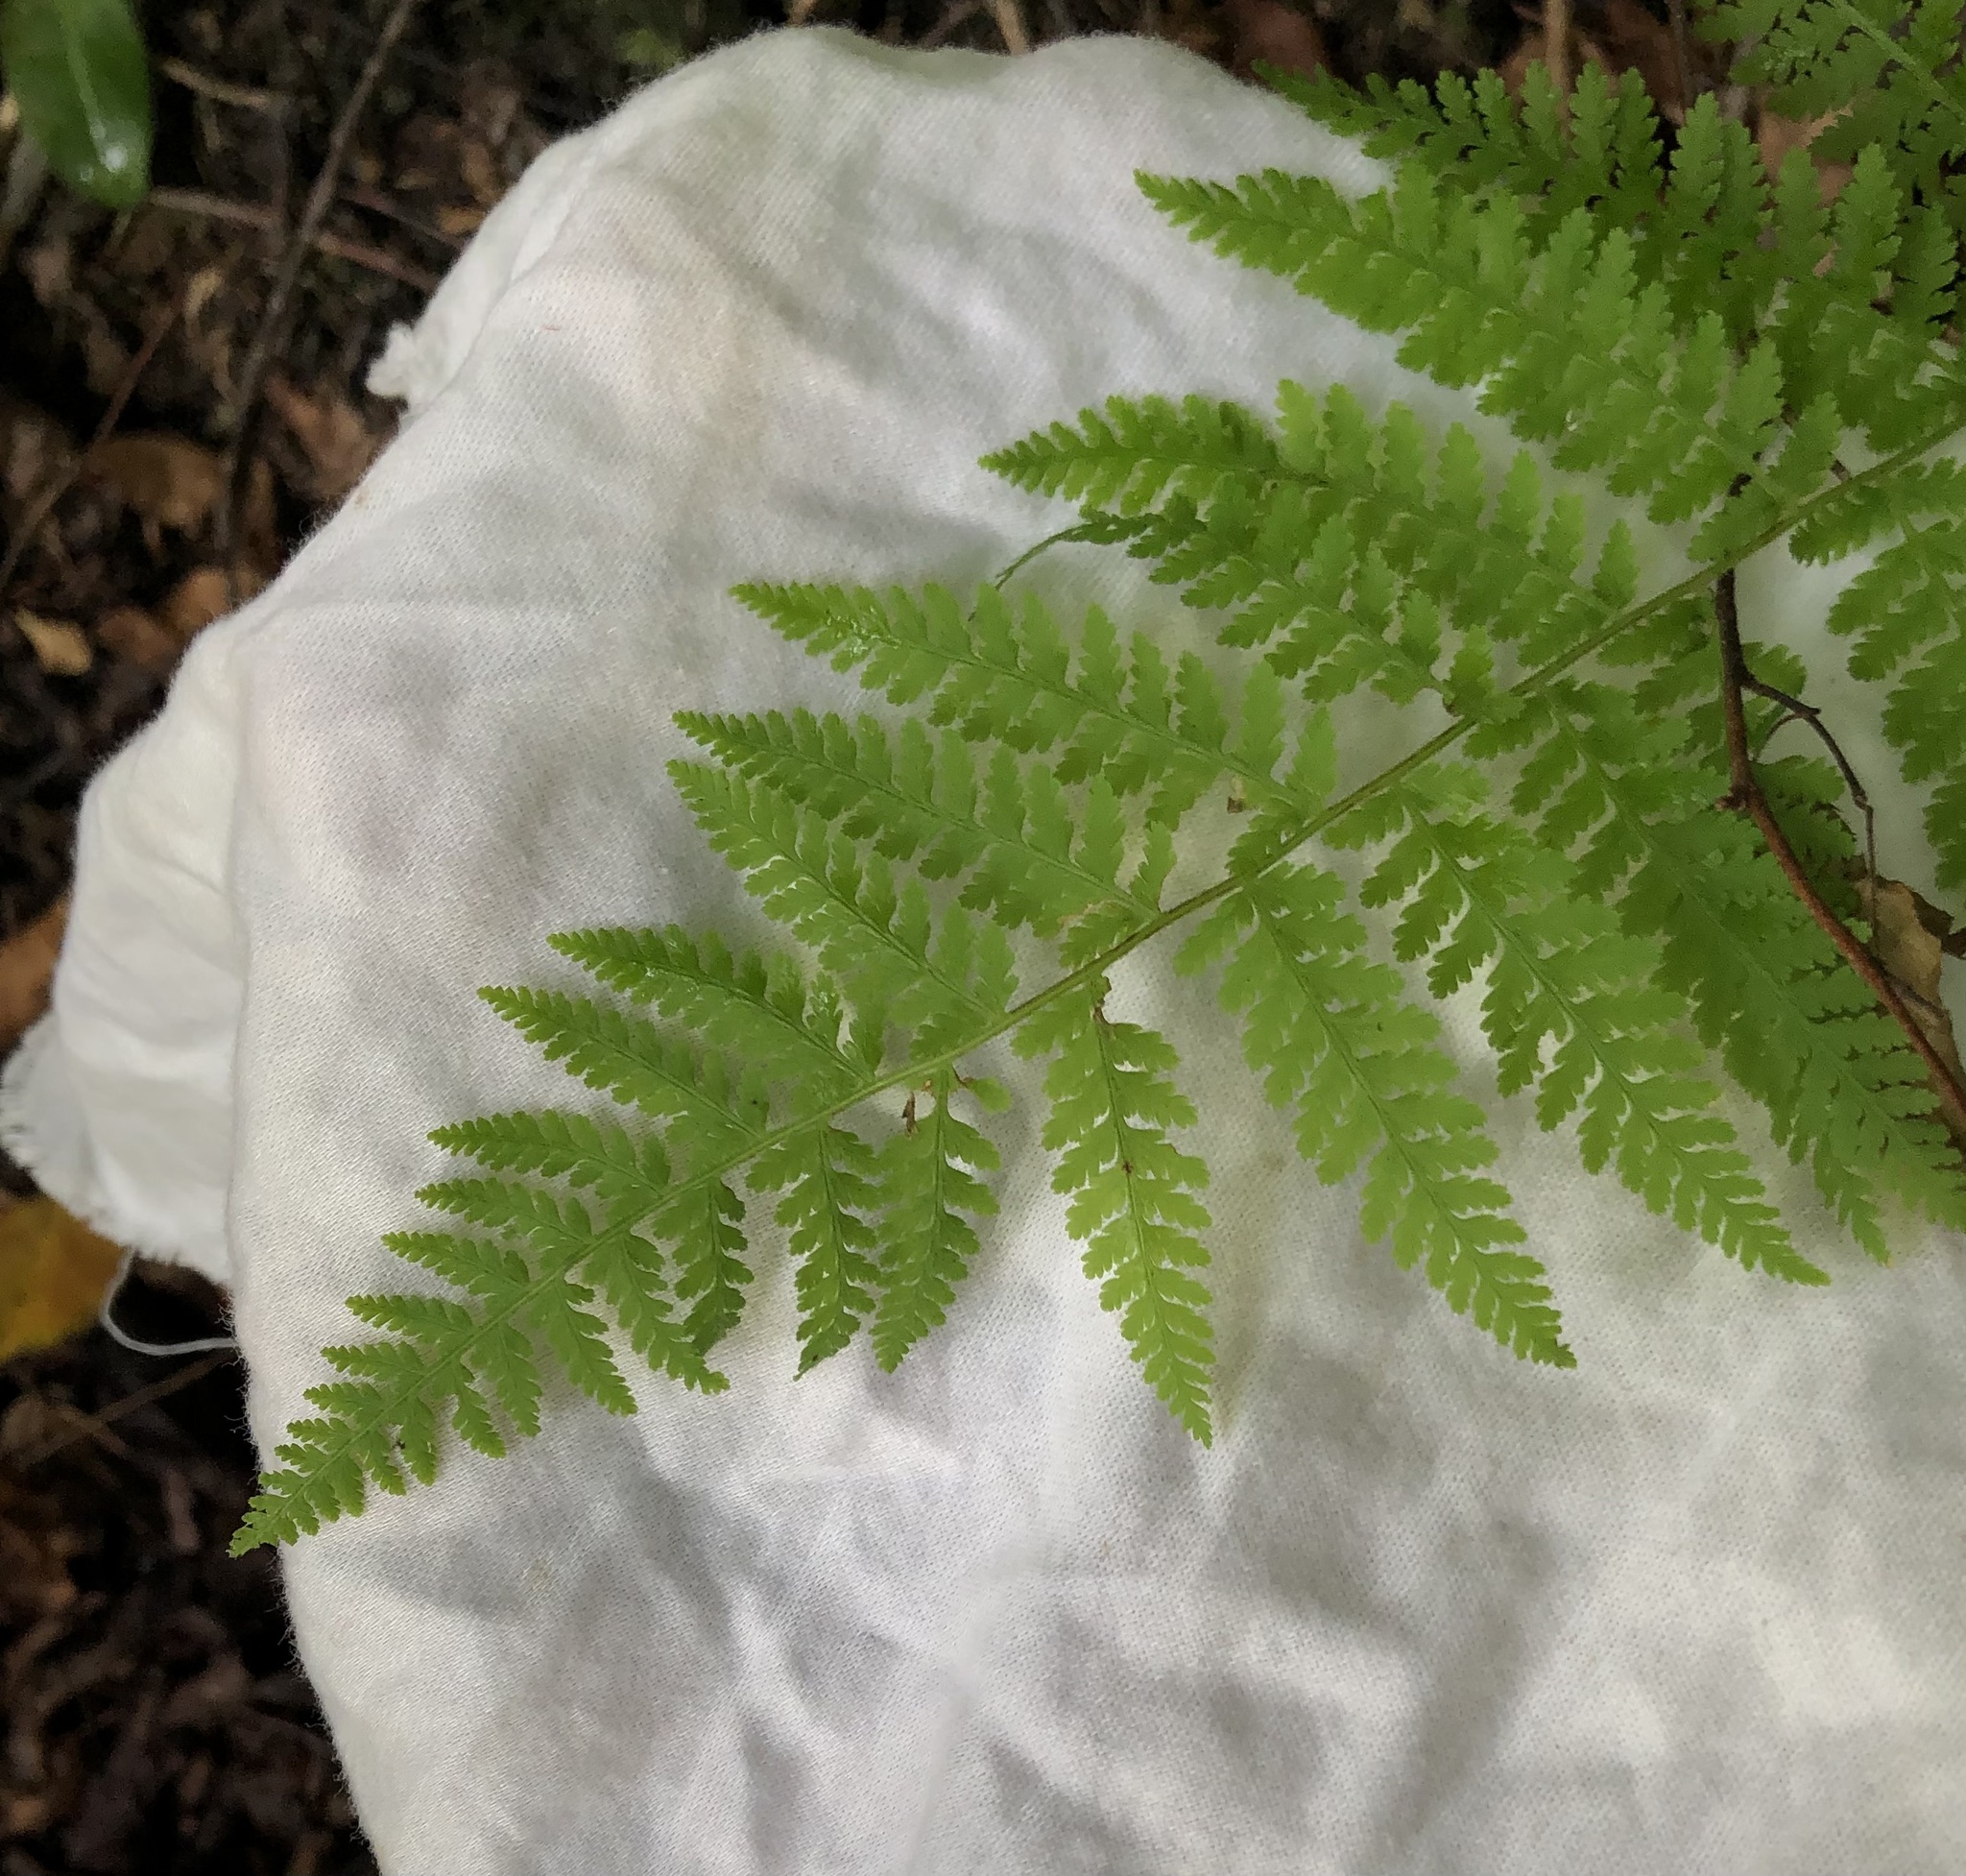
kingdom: Plantae
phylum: Tracheophyta
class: Polypodiopsida
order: Polypodiales
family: Dennstaedtiaceae
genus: Sitobolium
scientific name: Sitobolium punctilobum
